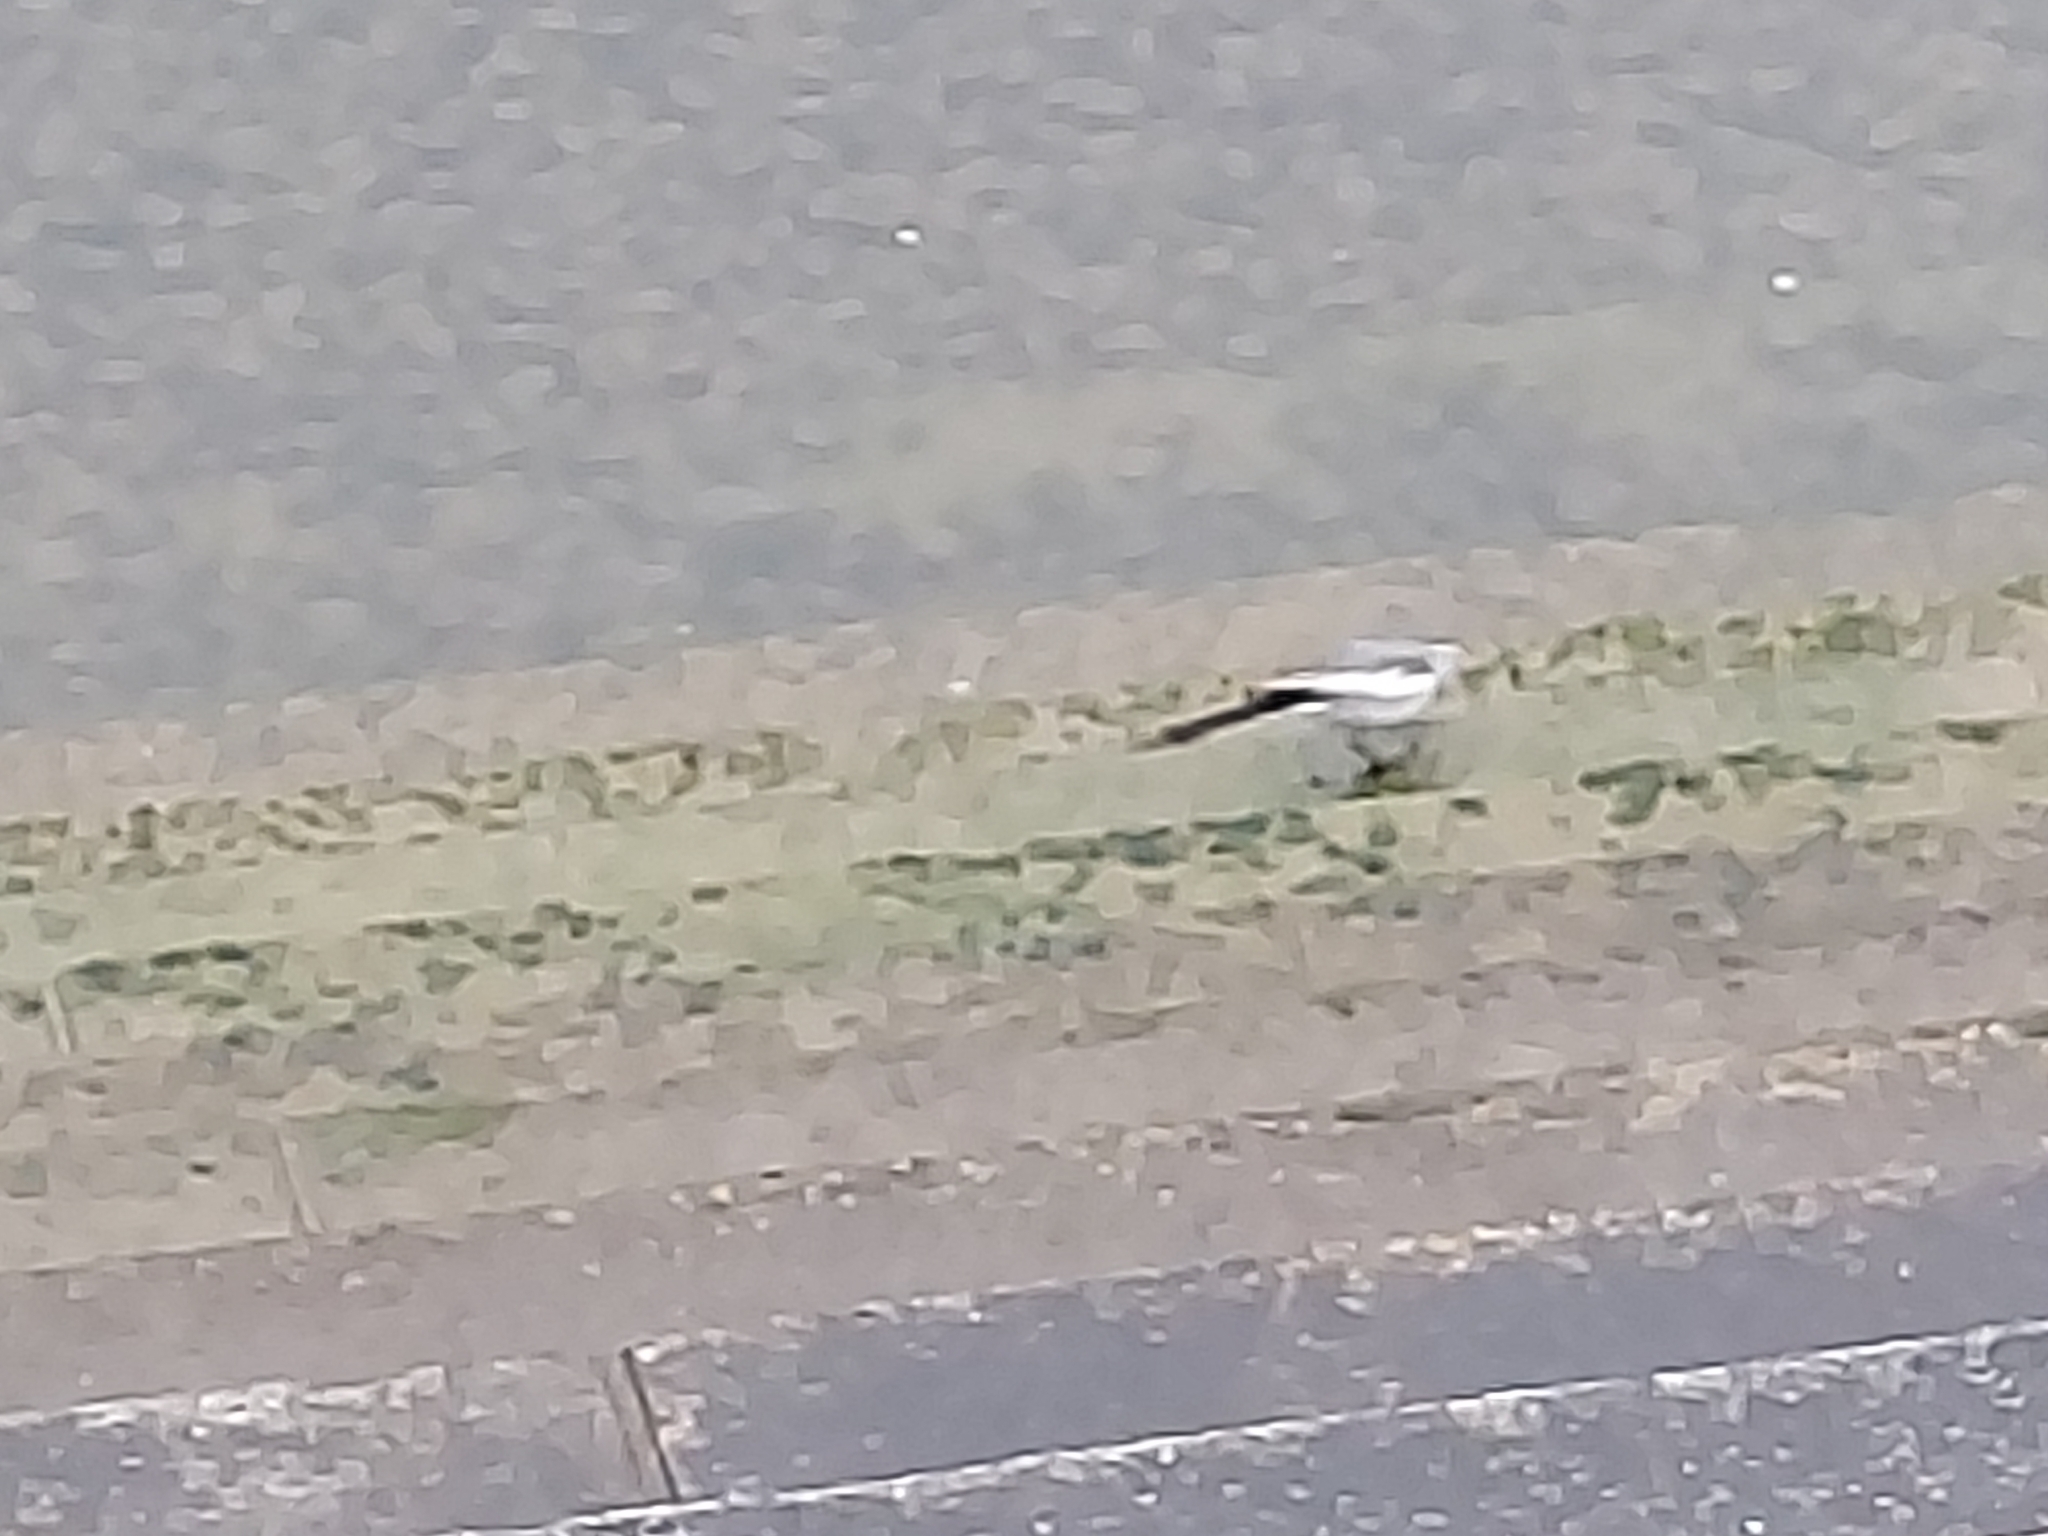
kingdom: Animalia
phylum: Chordata
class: Aves
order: Passeriformes
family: Motacillidae
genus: Motacilla
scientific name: Motacilla alba
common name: White wagtail
